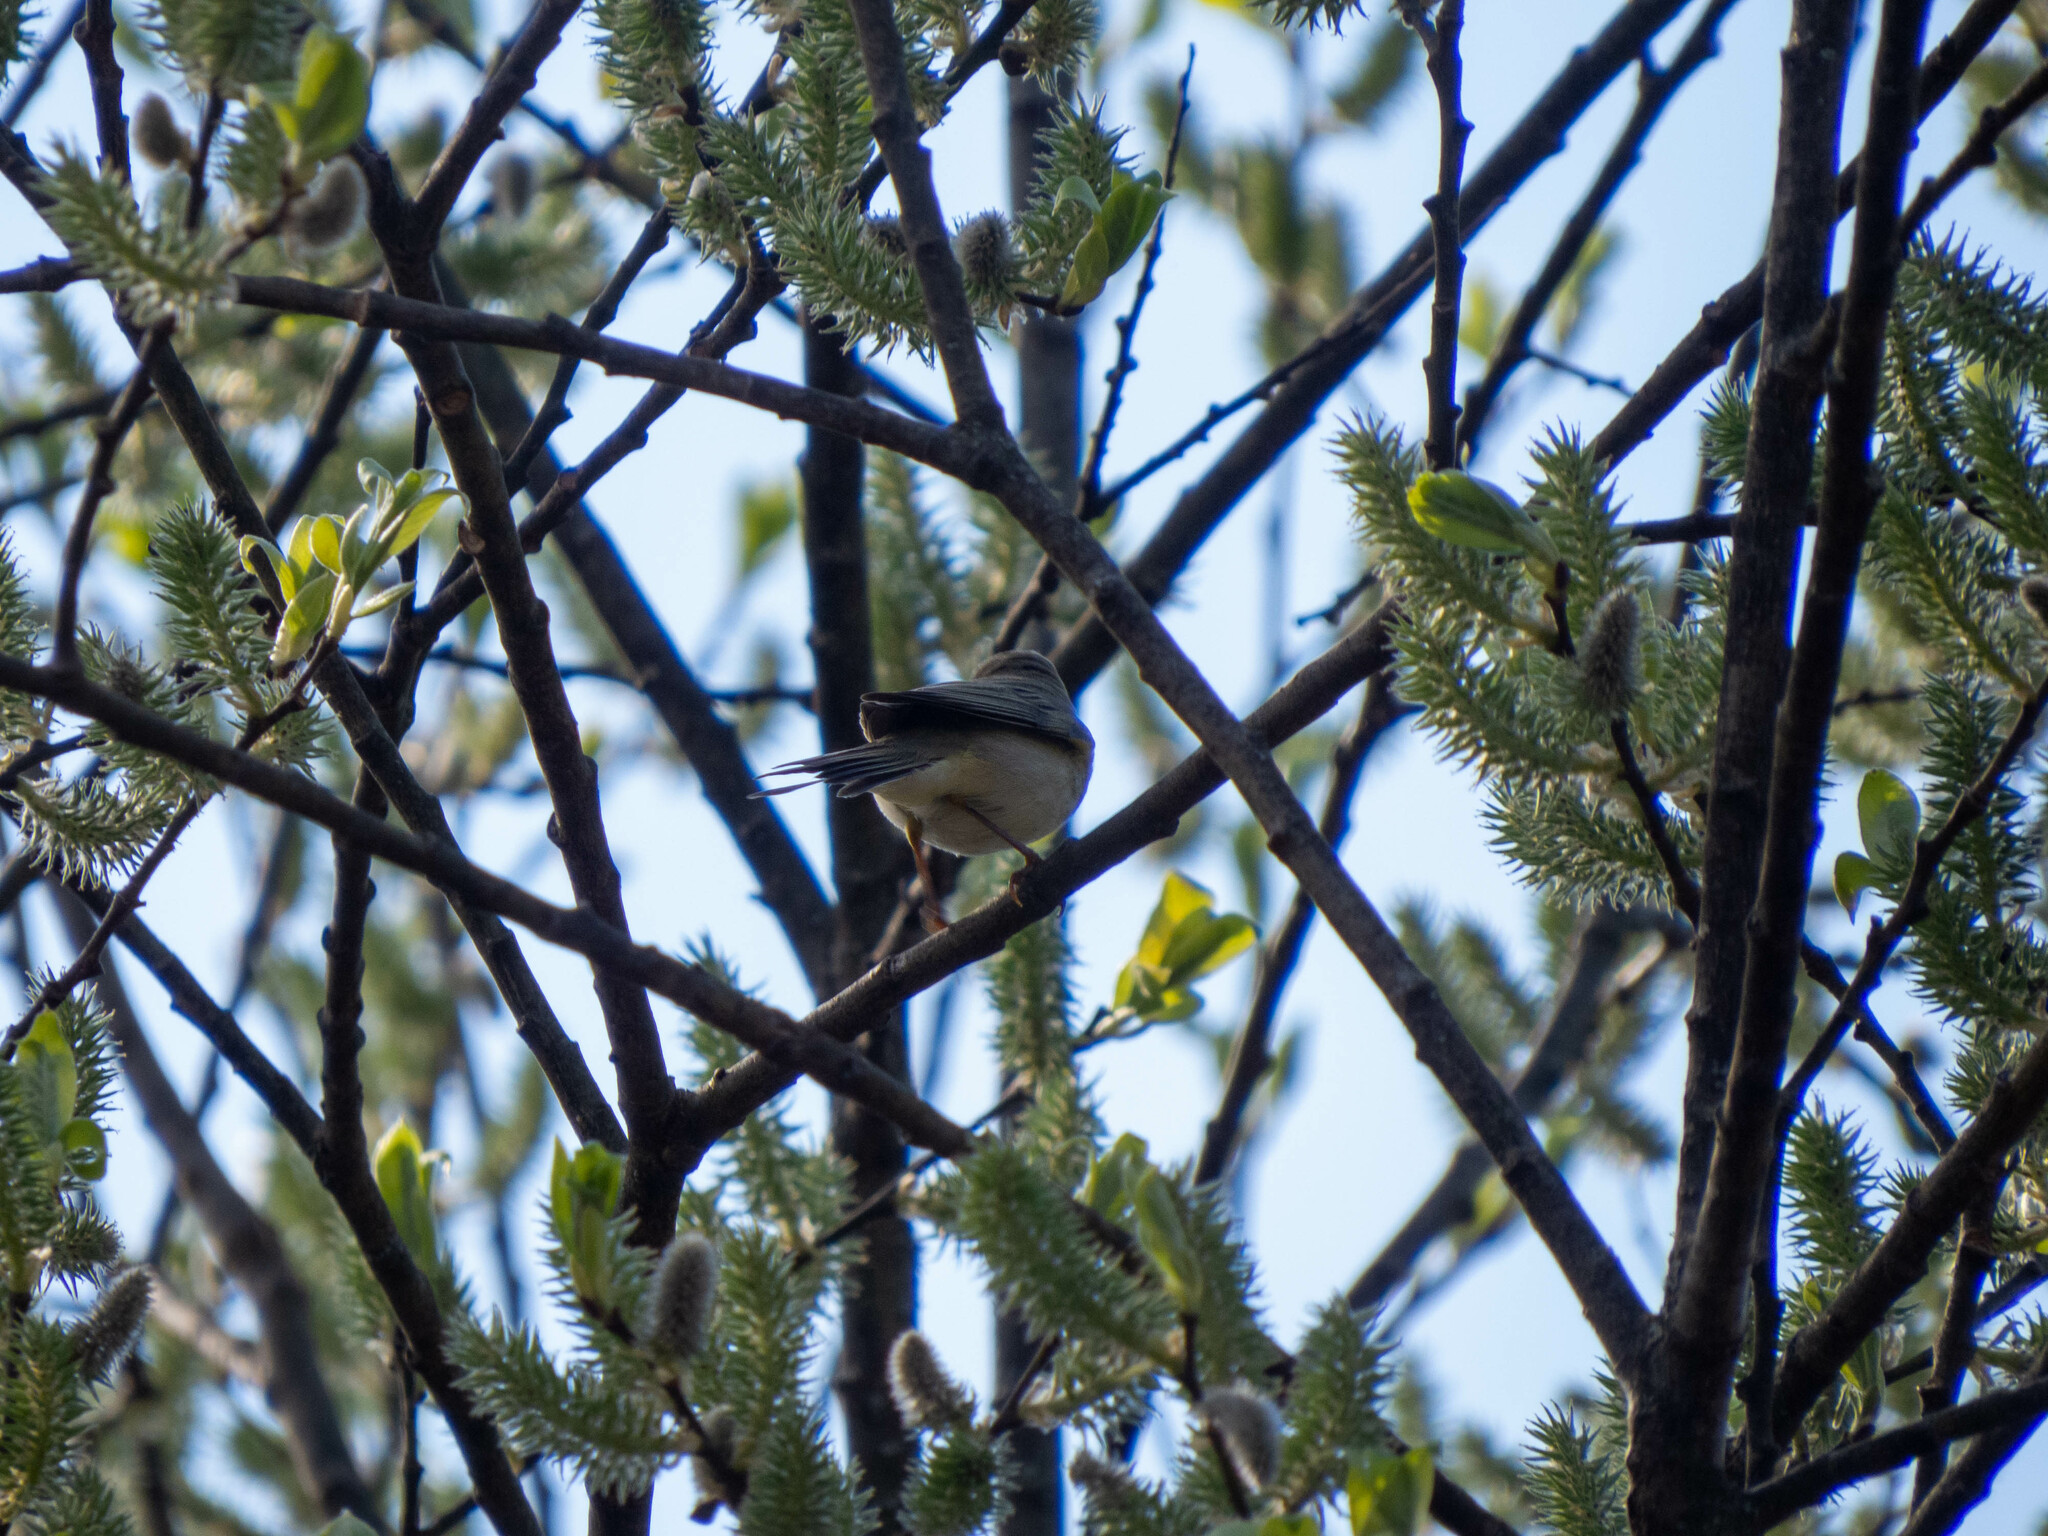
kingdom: Animalia
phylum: Chordata
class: Aves
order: Passeriformes
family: Phylloscopidae
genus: Phylloscopus
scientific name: Phylloscopus trochilus
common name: Willow warbler
